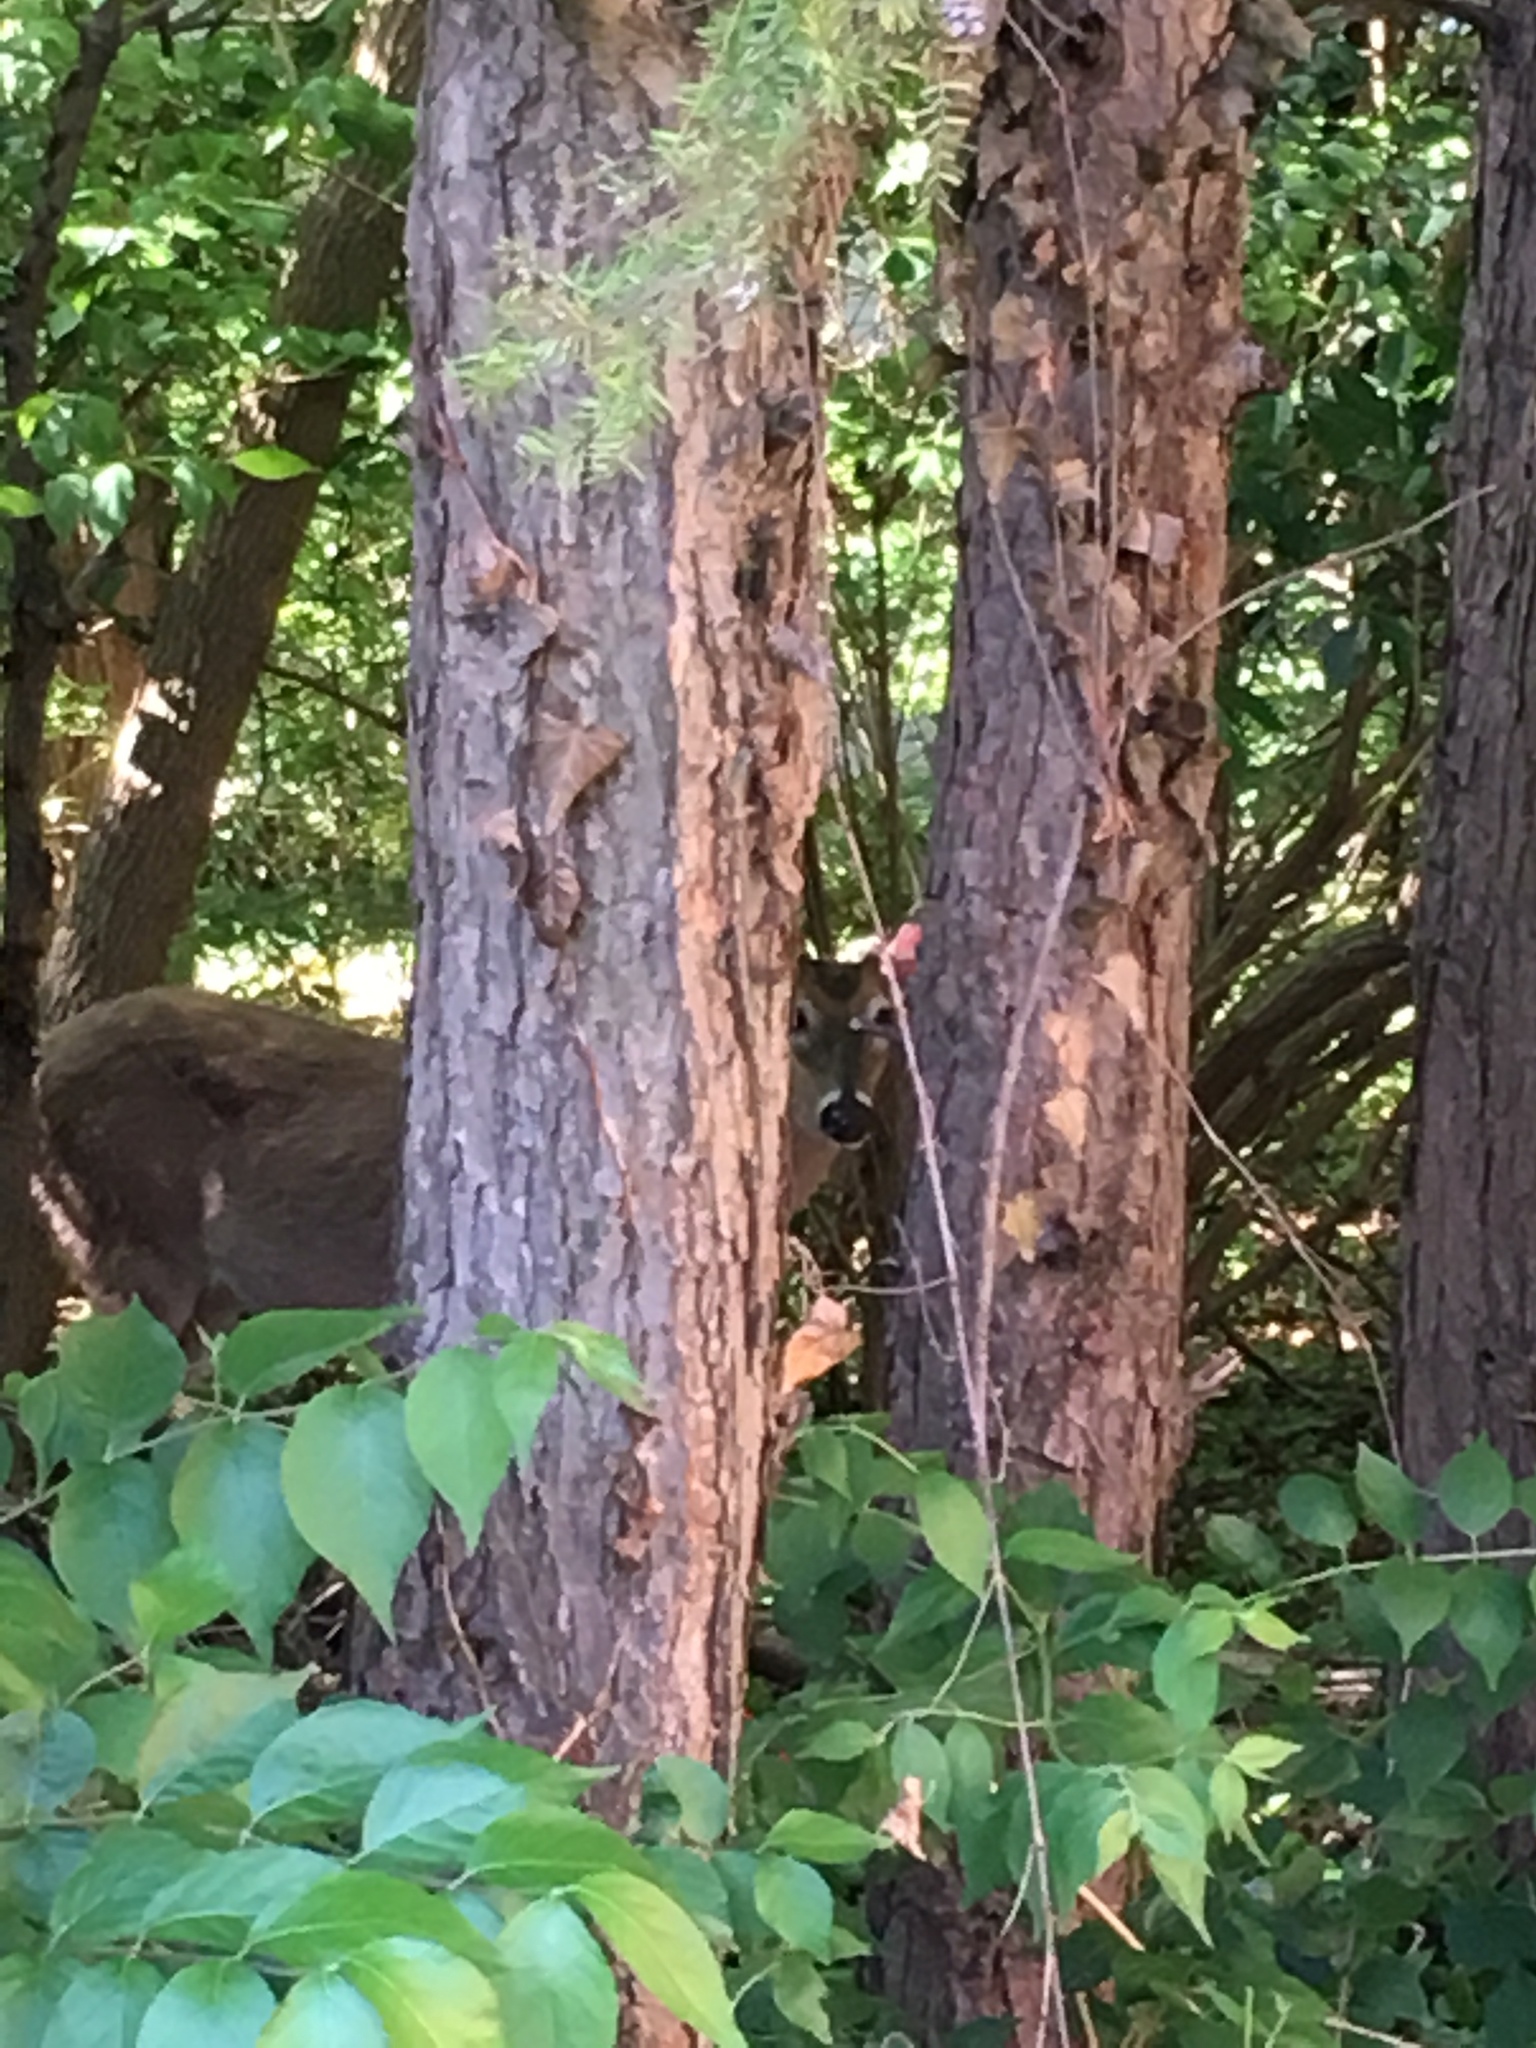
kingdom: Animalia
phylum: Chordata
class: Mammalia
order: Artiodactyla
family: Cervidae
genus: Odocoileus
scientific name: Odocoileus virginianus
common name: White-tailed deer
